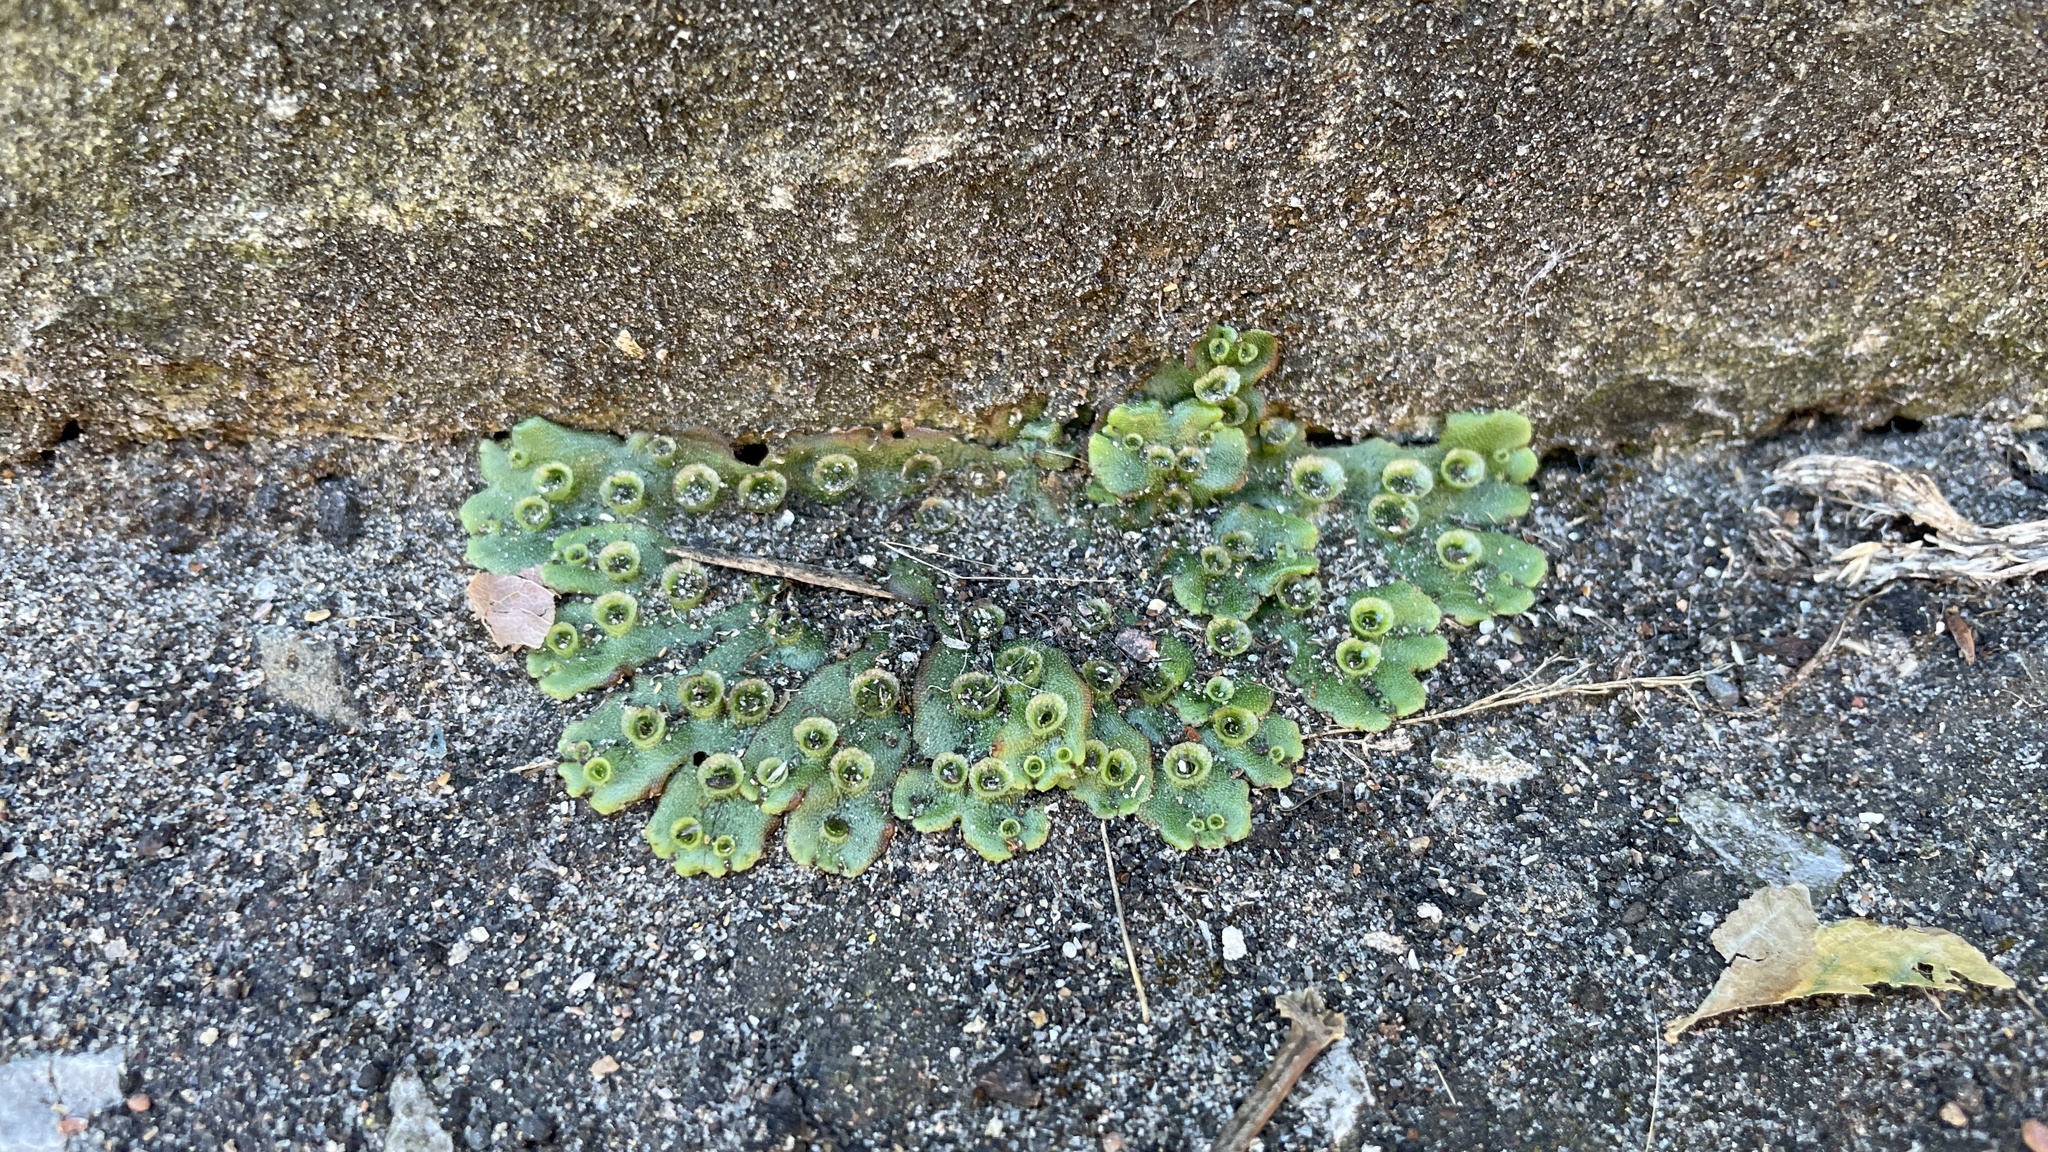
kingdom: Plantae
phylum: Marchantiophyta
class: Marchantiopsida
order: Marchantiales
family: Marchantiaceae
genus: Marchantia
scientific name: Marchantia polymorpha
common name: Common liverwort
